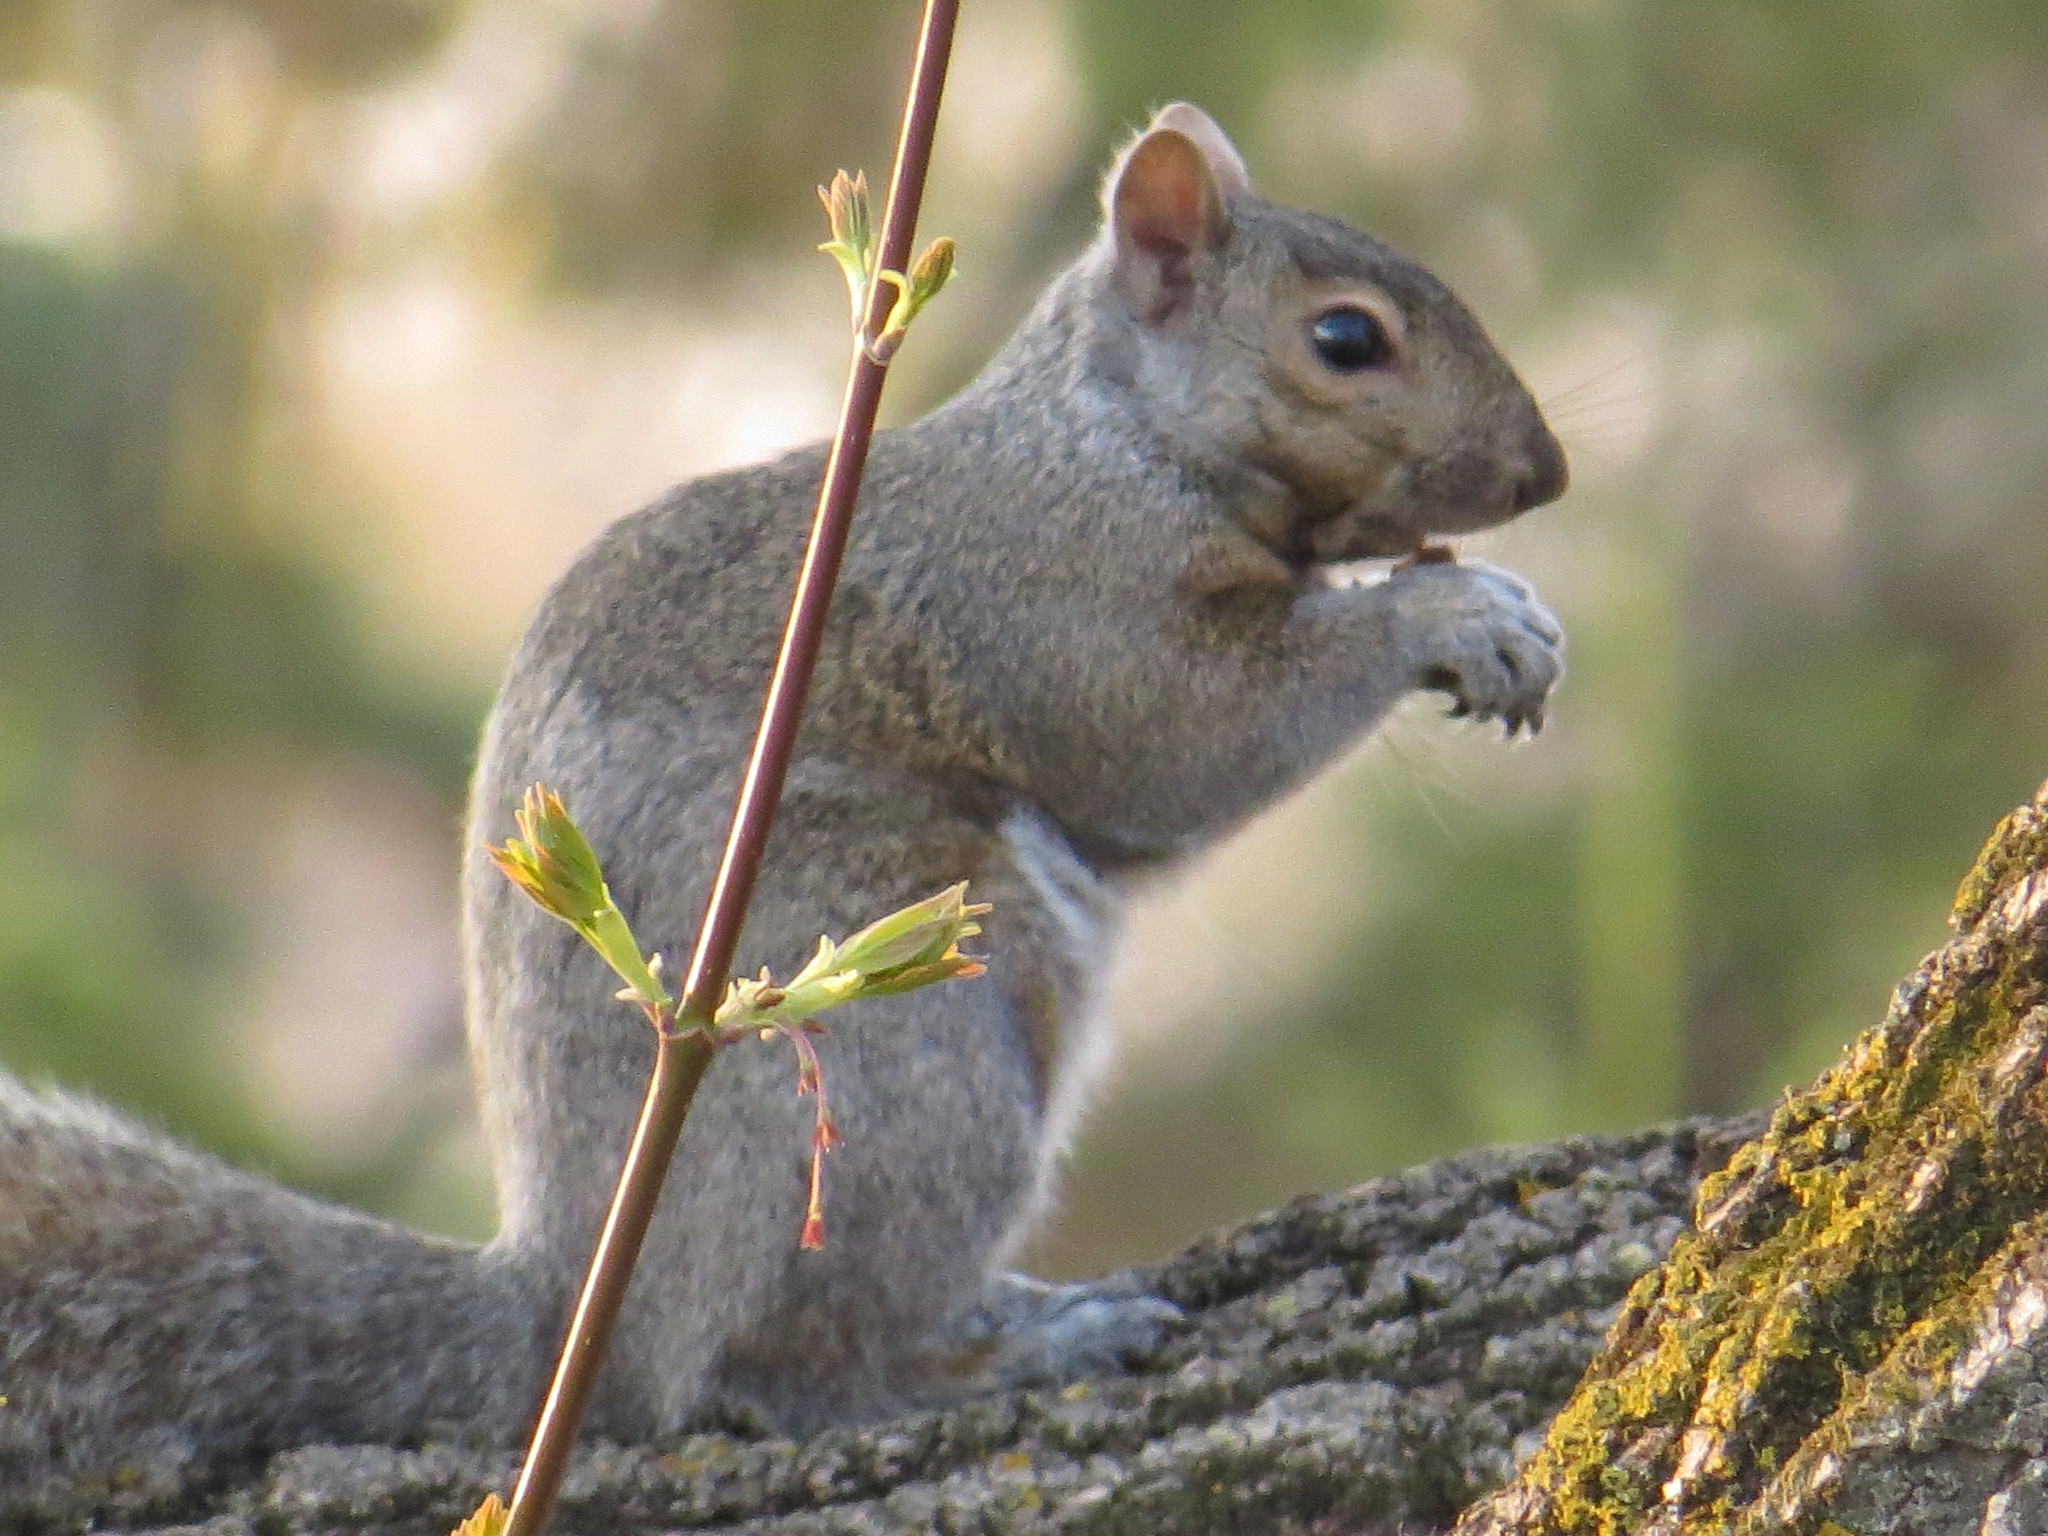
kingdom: Animalia
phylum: Chordata
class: Mammalia
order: Rodentia
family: Sciuridae
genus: Sciurus
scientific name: Sciurus carolinensis
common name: Eastern gray squirrel
